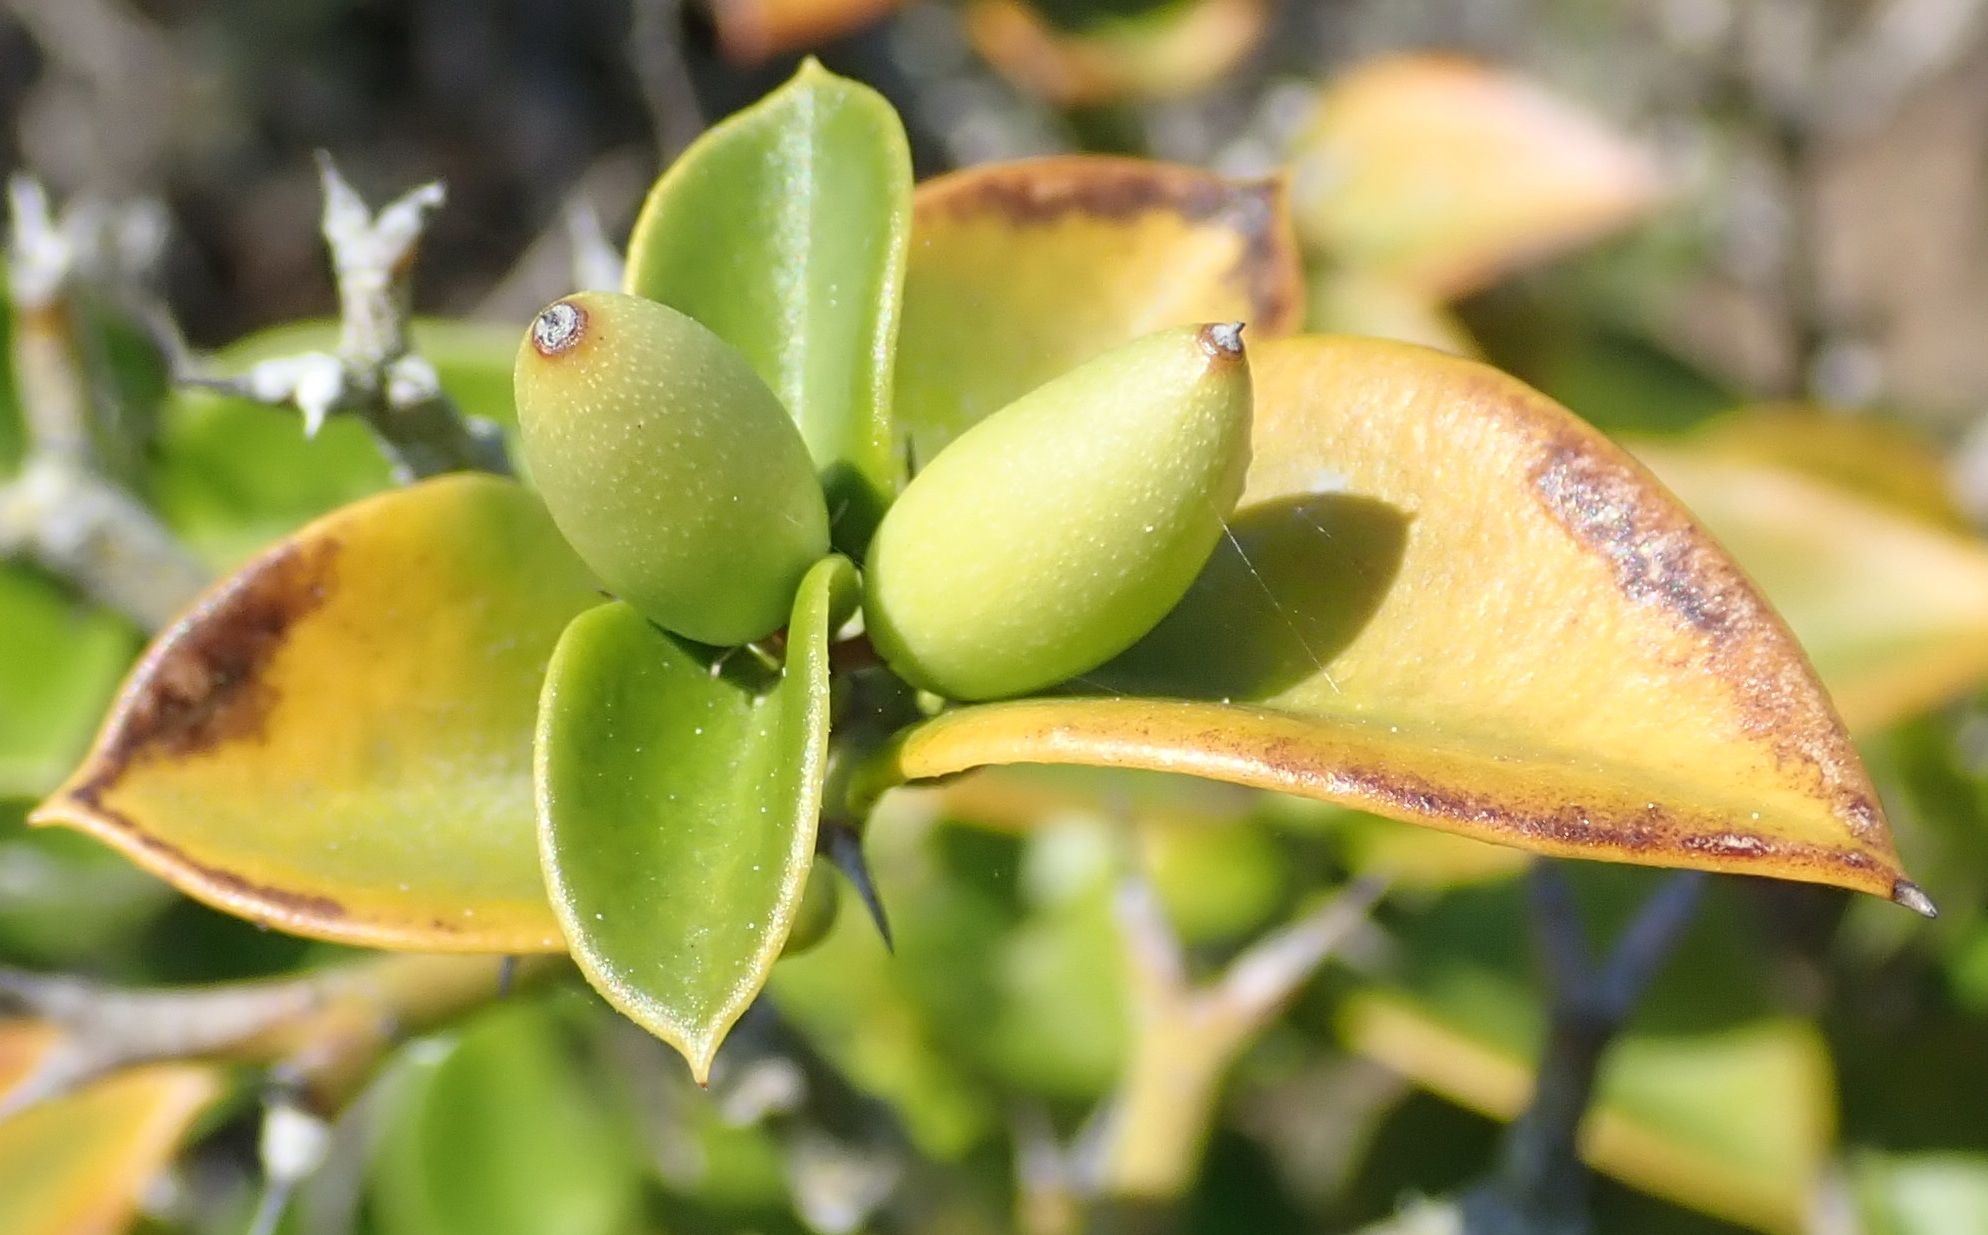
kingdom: Plantae
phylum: Tracheophyta
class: Magnoliopsida
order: Gentianales
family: Apocynaceae
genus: Carissa
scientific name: Carissa bispinosa
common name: Forest num-num
